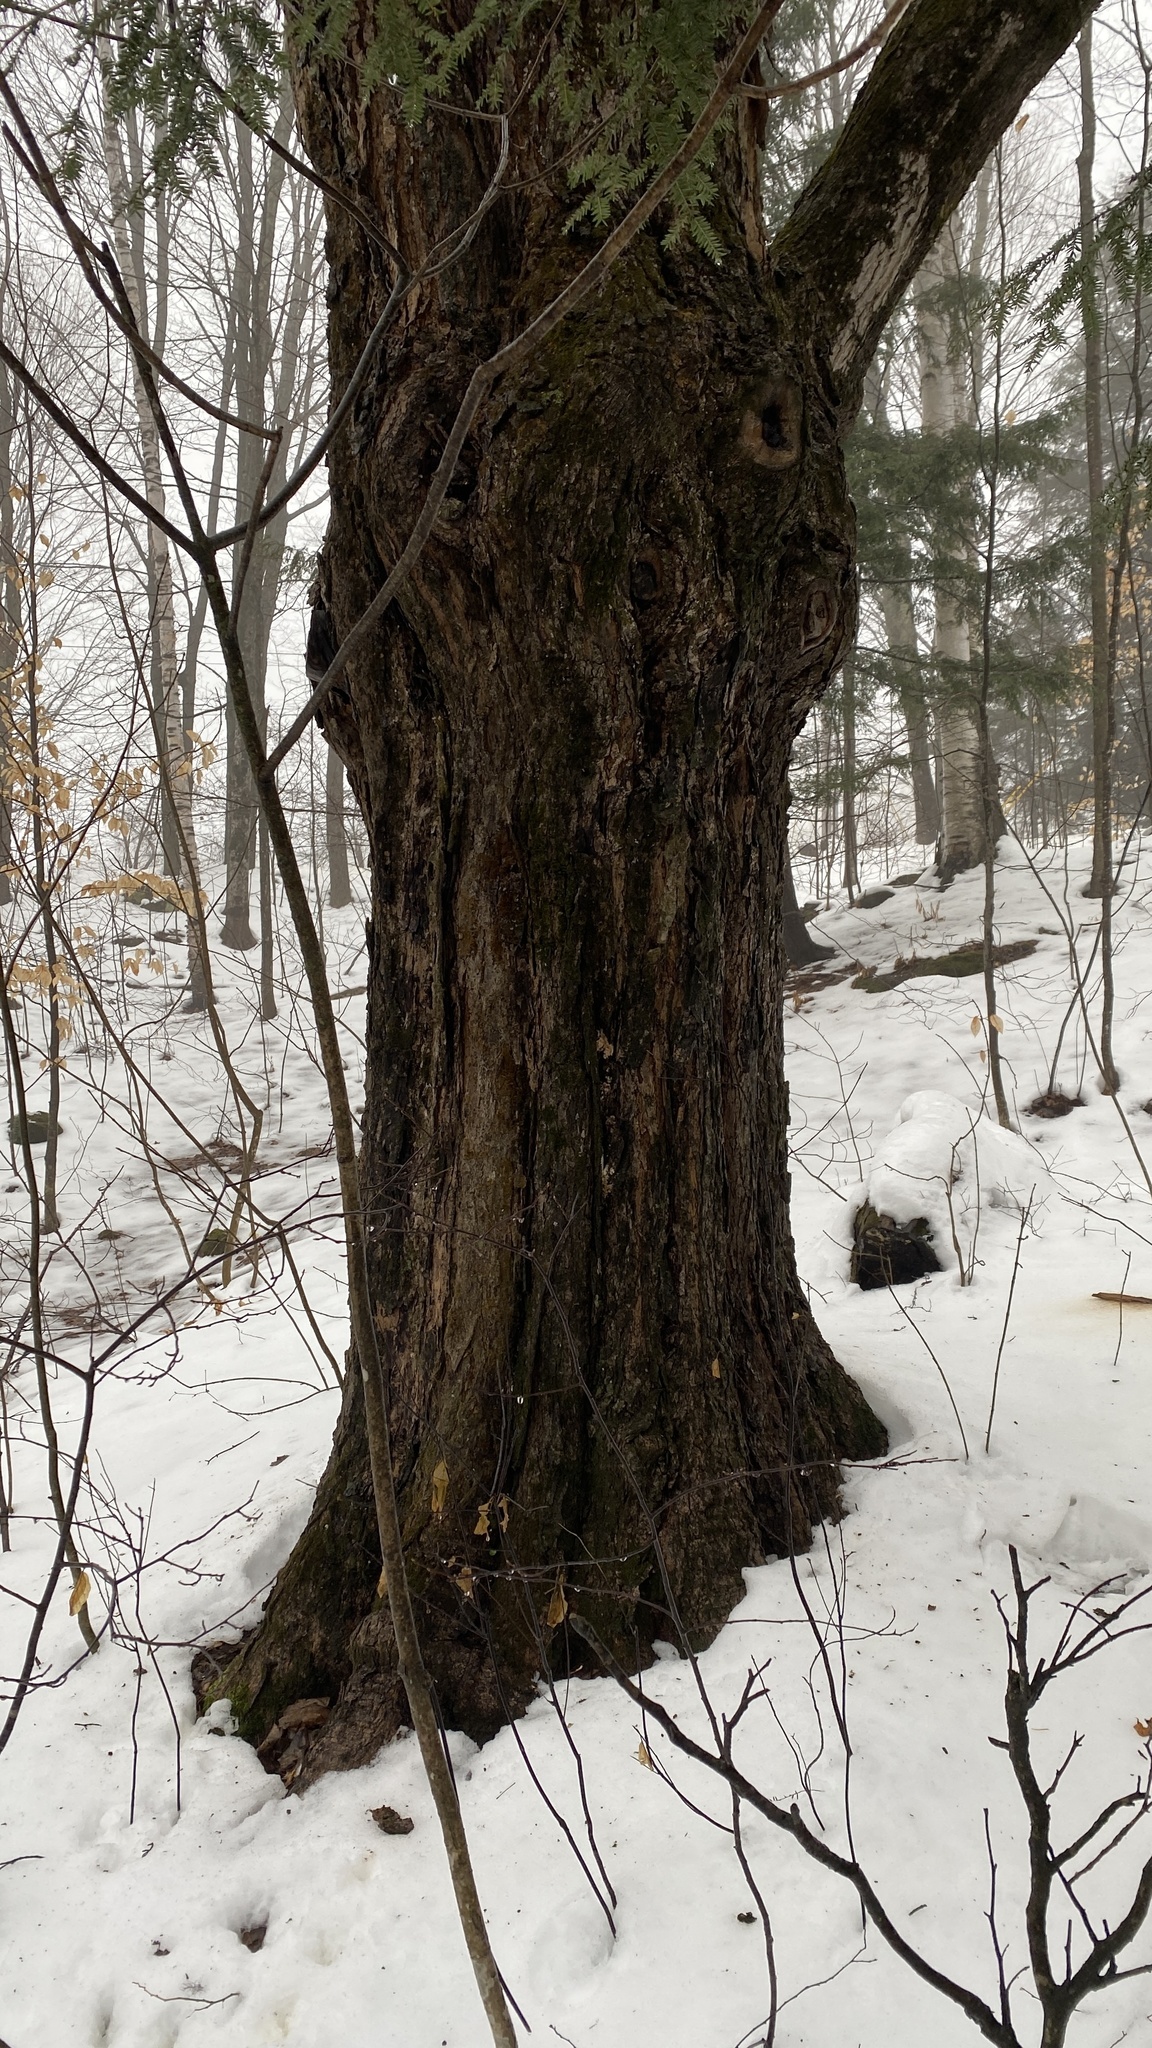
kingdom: Plantae
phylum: Tracheophyta
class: Magnoliopsida
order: Sapindales
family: Sapindaceae
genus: Acer
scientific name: Acer saccharum
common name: Sugar maple
